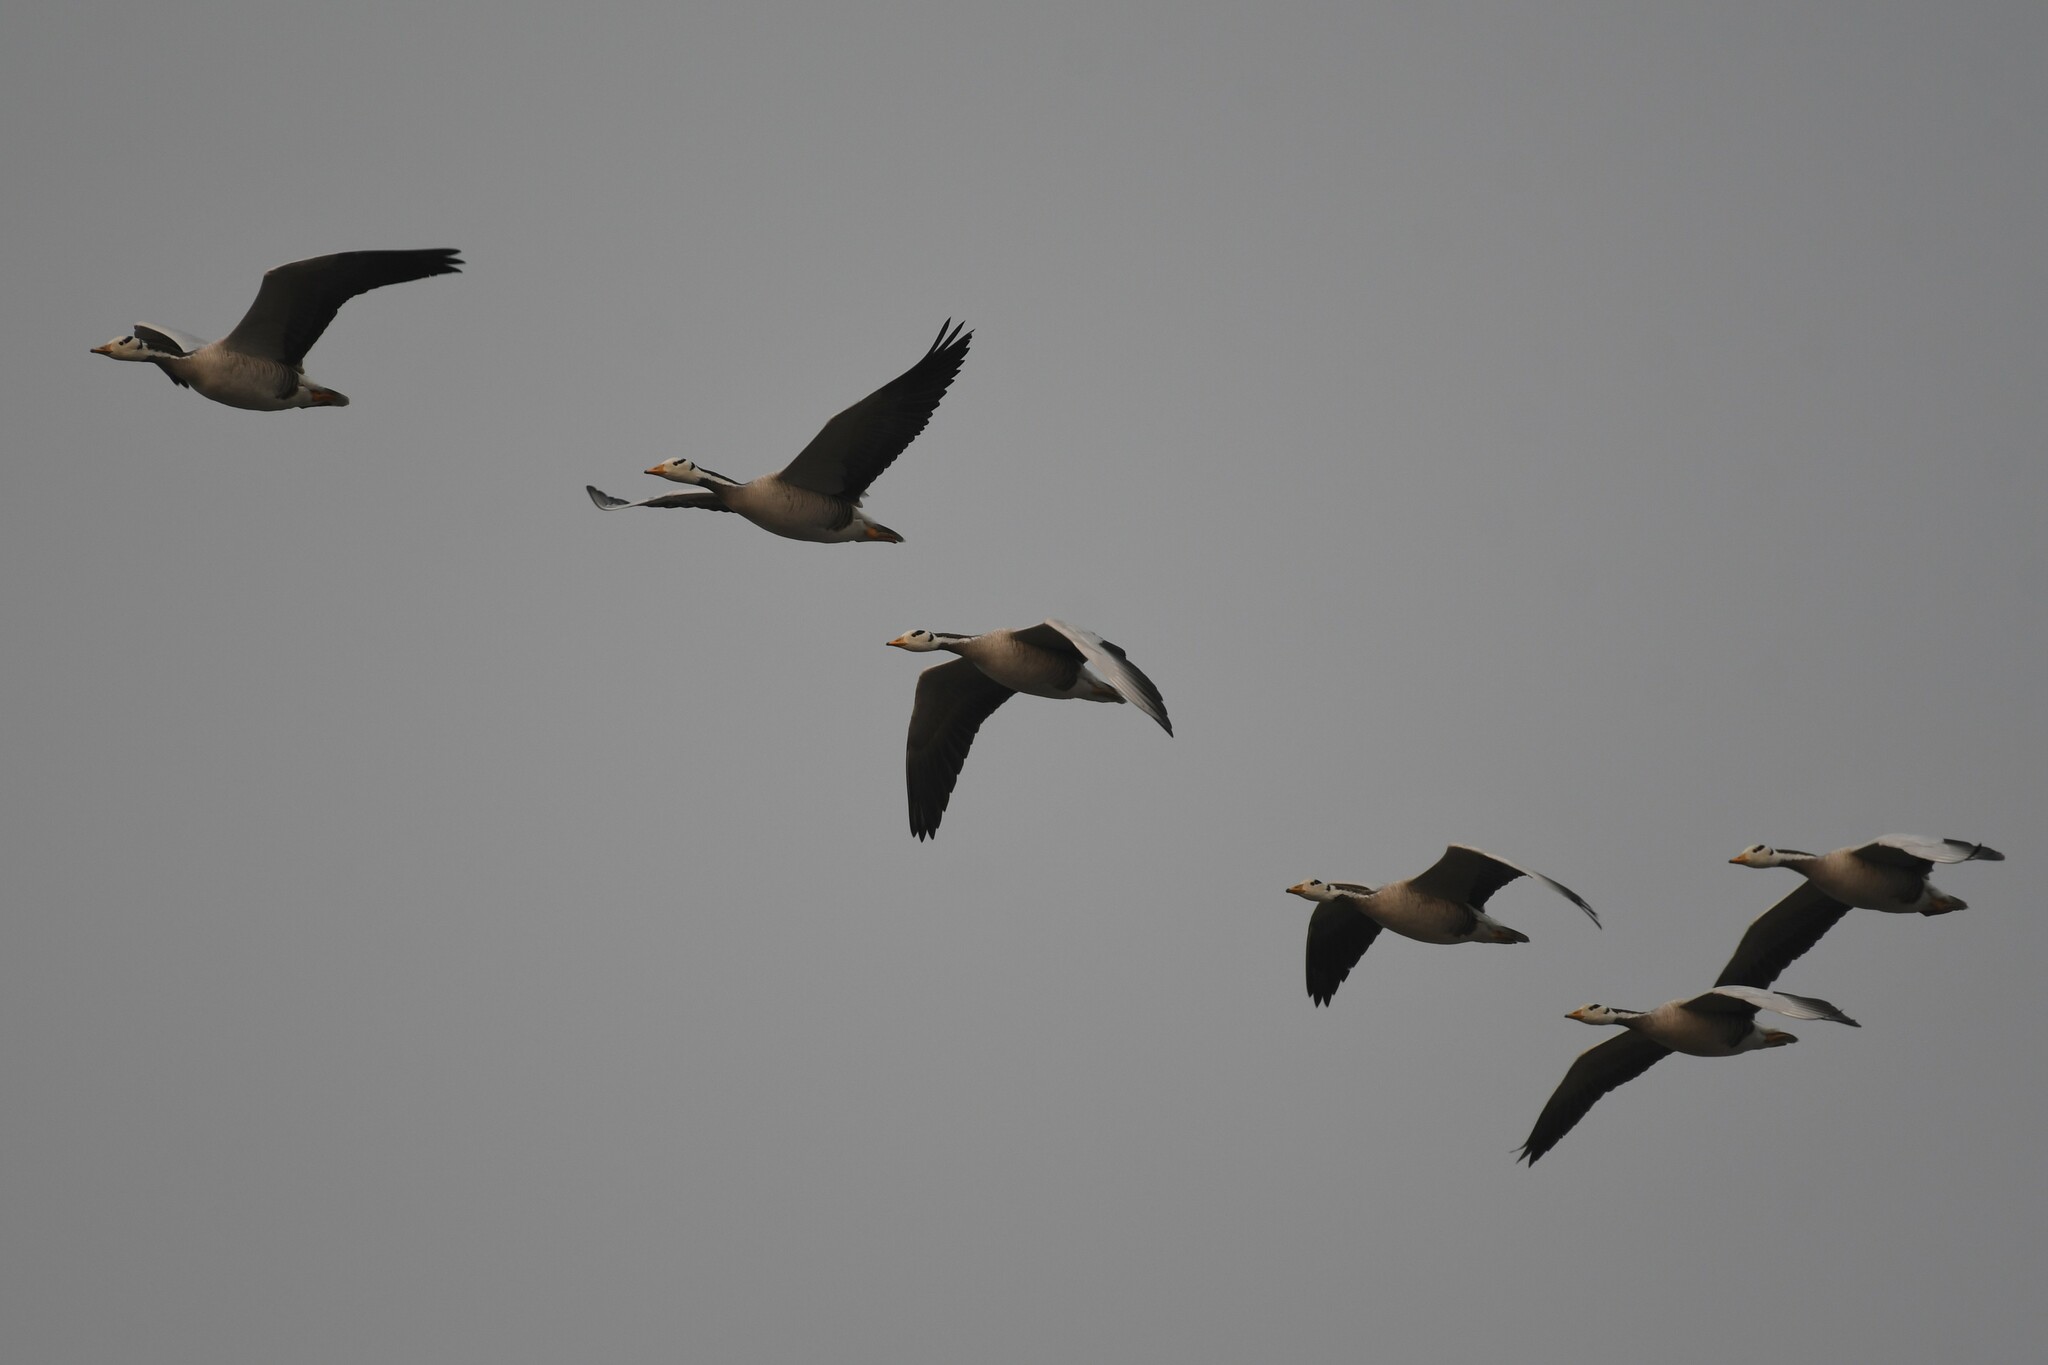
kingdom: Animalia
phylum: Chordata
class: Aves
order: Anseriformes
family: Anatidae
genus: Anser
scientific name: Anser indicus
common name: Bar-headed goose
